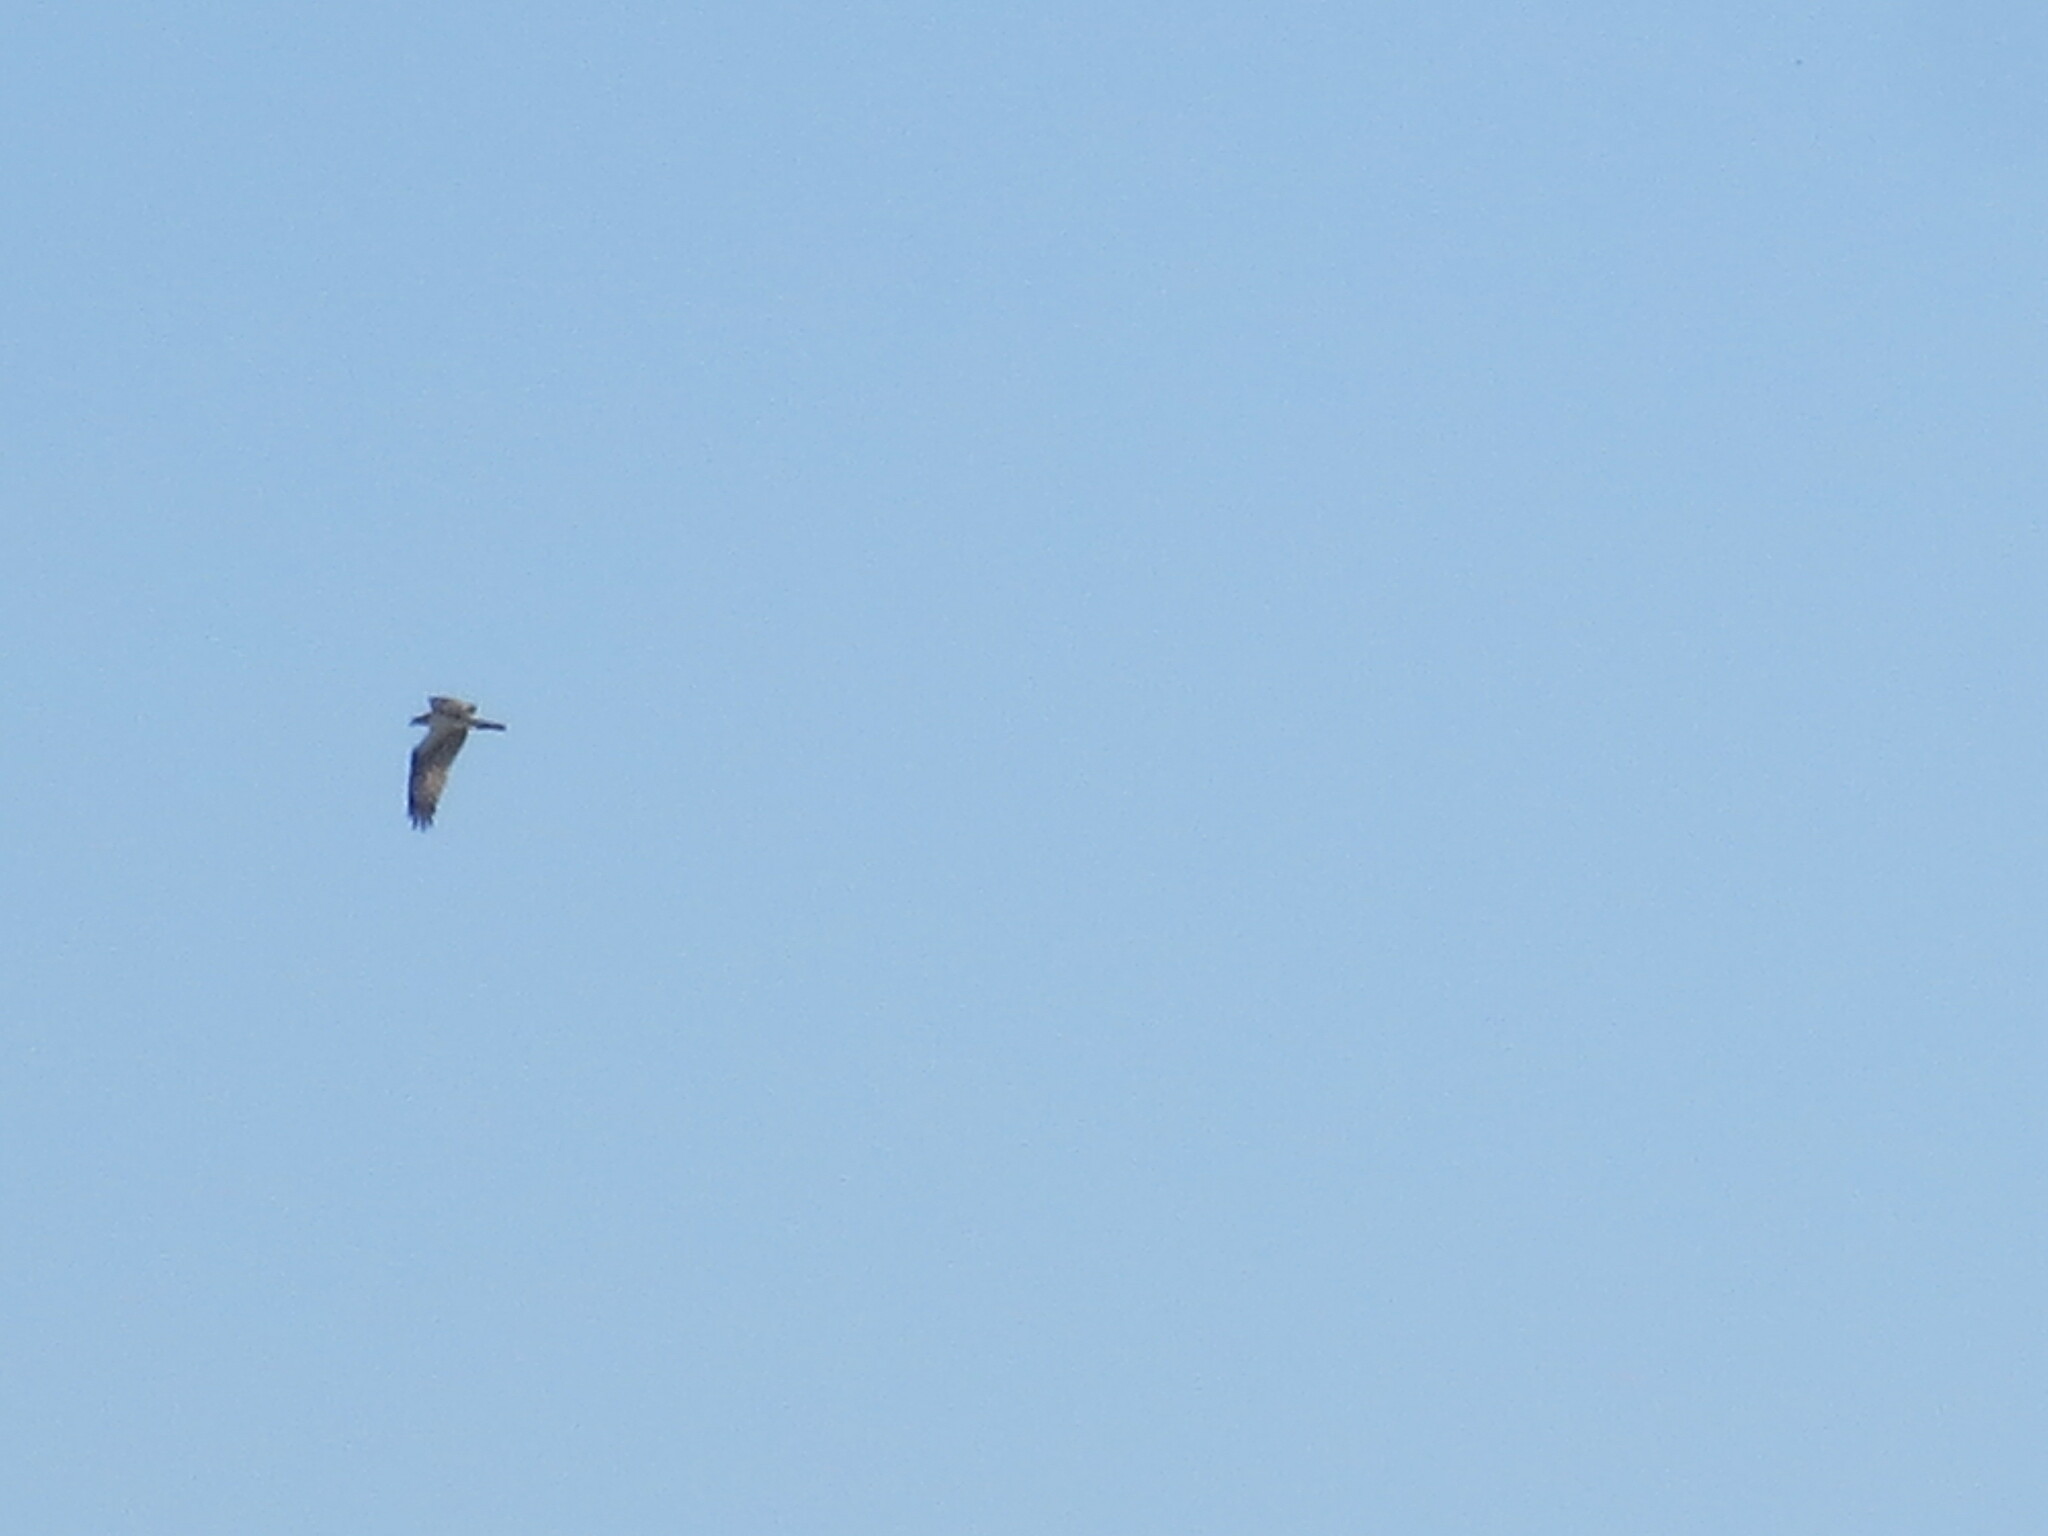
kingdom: Animalia
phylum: Chordata
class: Aves
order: Accipitriformes
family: Pandionidae
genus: Pandion
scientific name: Pandion haliaetus
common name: Osprey
